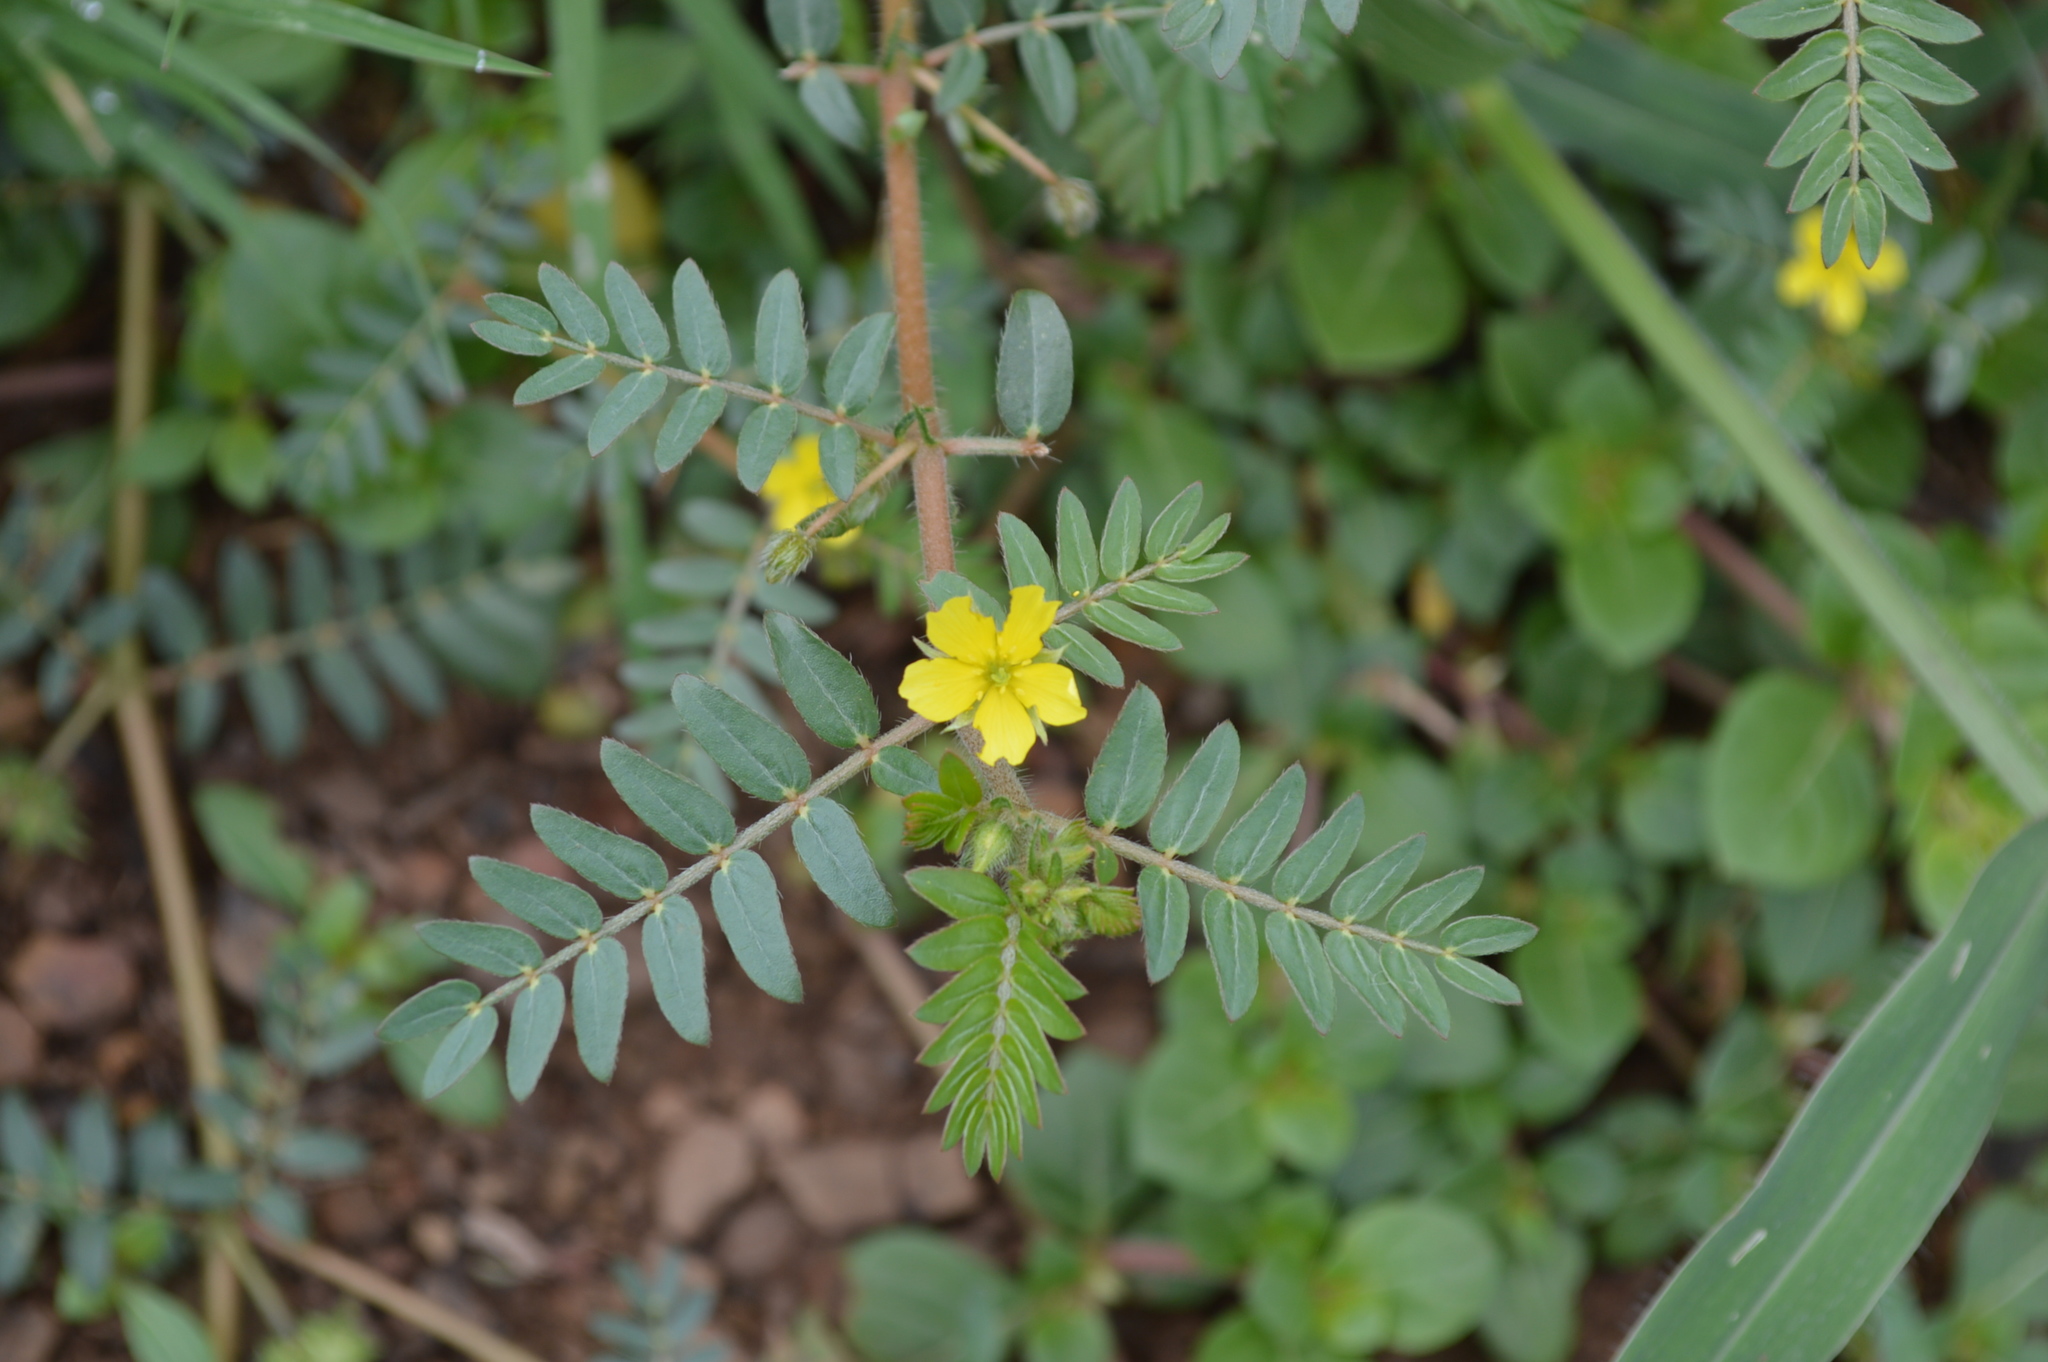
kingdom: Plantae
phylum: Tracheophyta
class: Magnoliopsida
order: Zygophyllales
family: Zygophyllaceae
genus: Tribulus
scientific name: Tribulus terrestris
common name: Puncturevine
